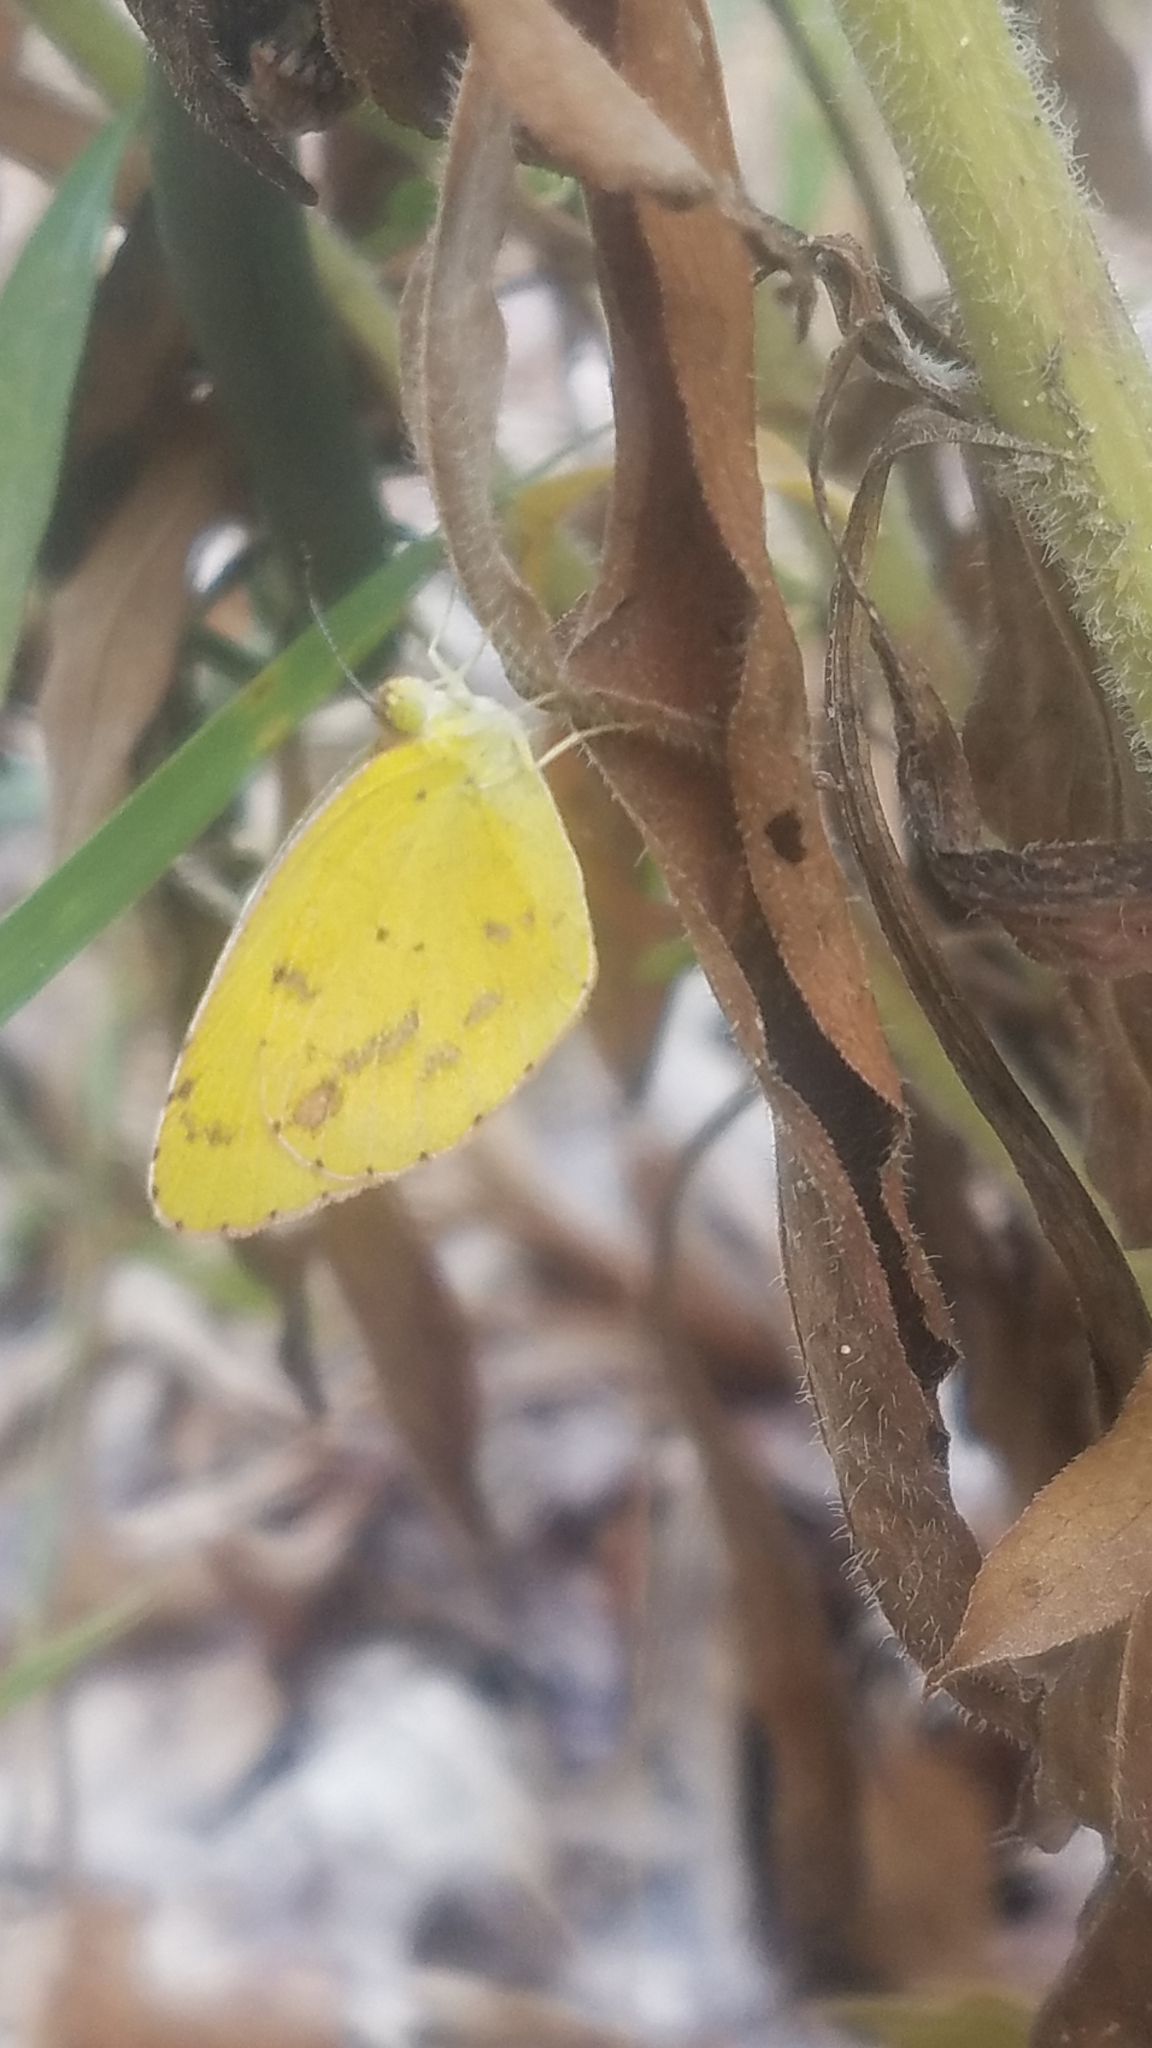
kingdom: Animalia
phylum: Arthropoda
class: Insecta
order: Lepidoptera
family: Pieridae
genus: Pyrisitia
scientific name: Pyrisitia lisa
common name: Little yellow
